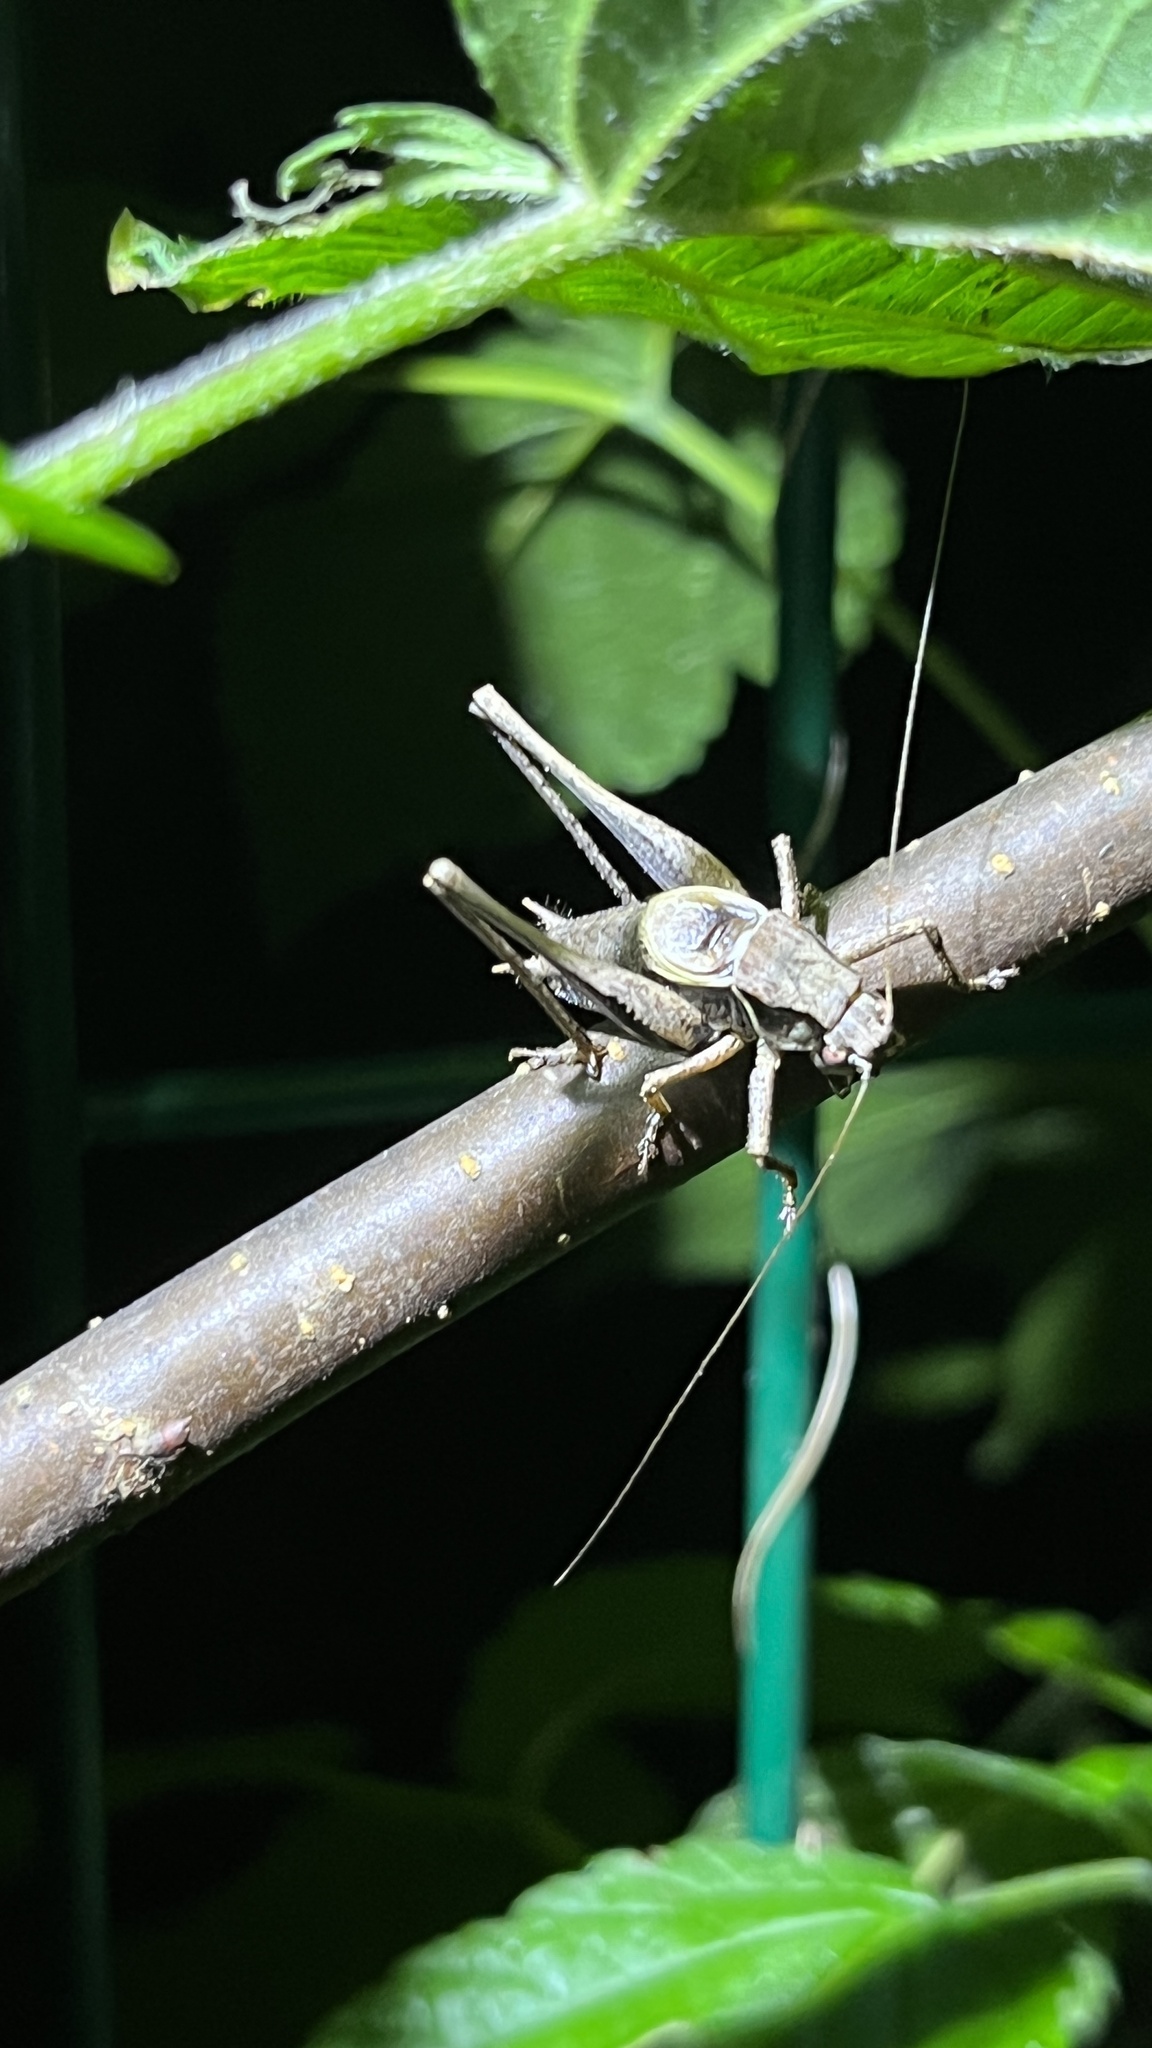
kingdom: Animalia
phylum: Arthropoda
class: Insecta
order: Orthoptera
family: Tettigoniidae
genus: Pholidoptera
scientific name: Pholidoptera griseoaptera
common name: Dark bush-cricket
